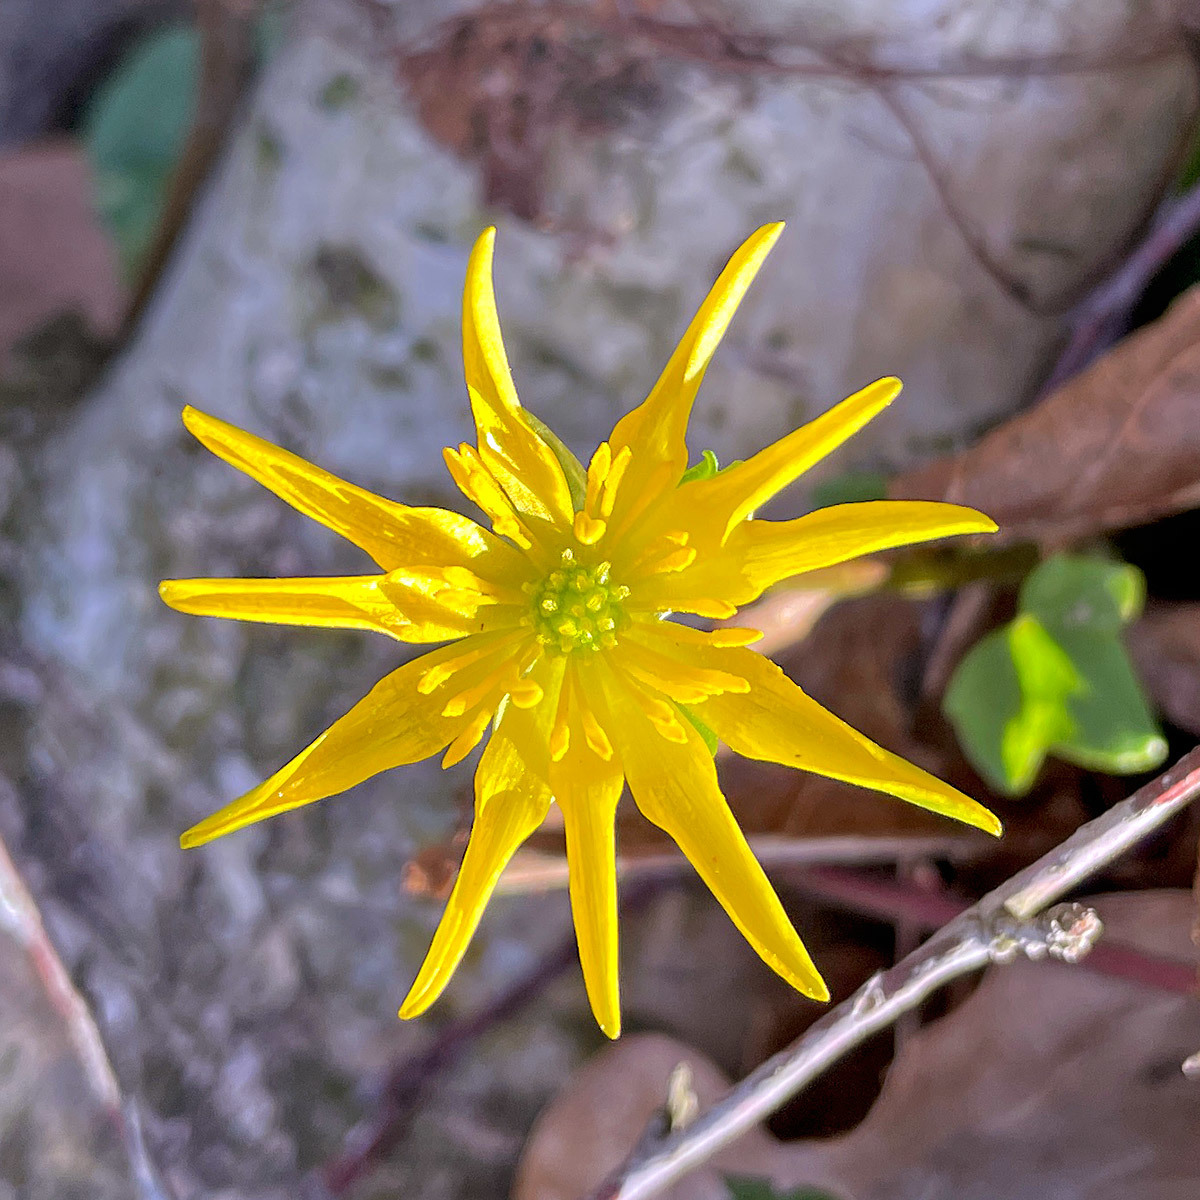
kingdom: Plantae
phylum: Tracheophyta
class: Magnoliopsida
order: Ranunculales
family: Ranunculaceae
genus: Ficaria
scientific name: Ficaria verna
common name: Lesser celandine
